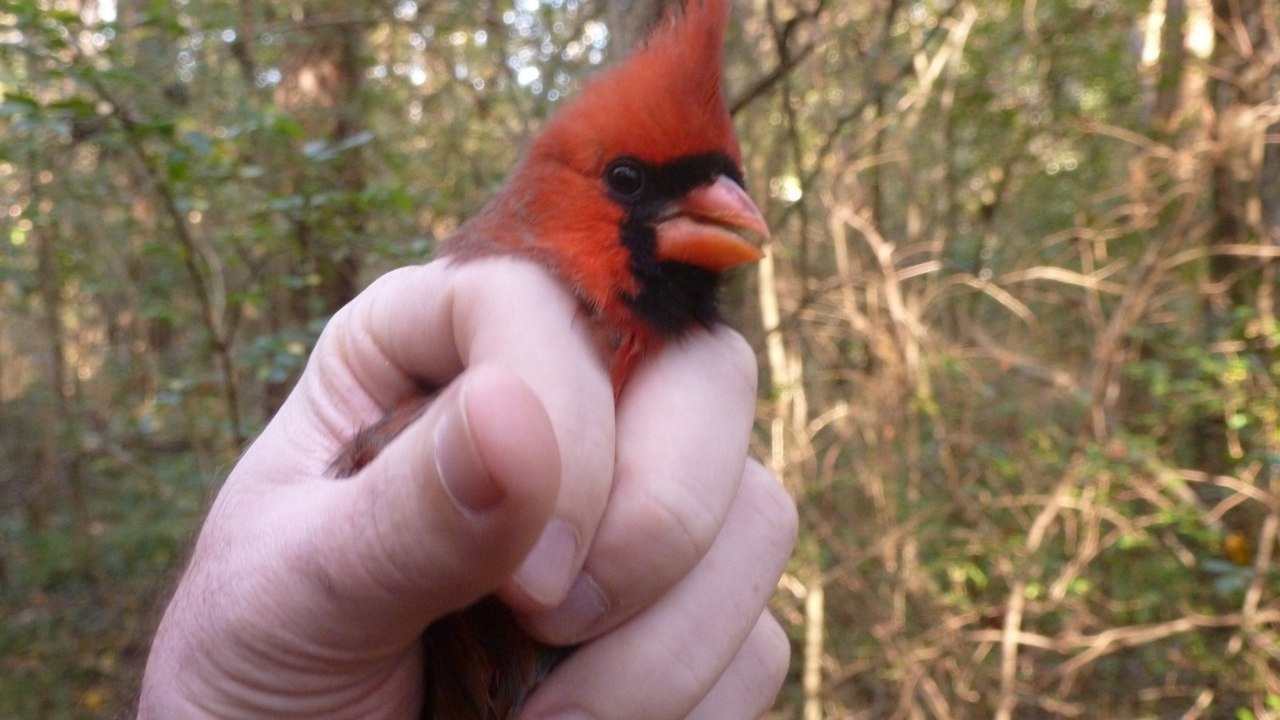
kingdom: Animalia
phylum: Chordata
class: Aves
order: Passeriformes
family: Cardinalidae
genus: Cardinalis
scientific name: Cardinalis cardinalis
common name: Northern cardinal
